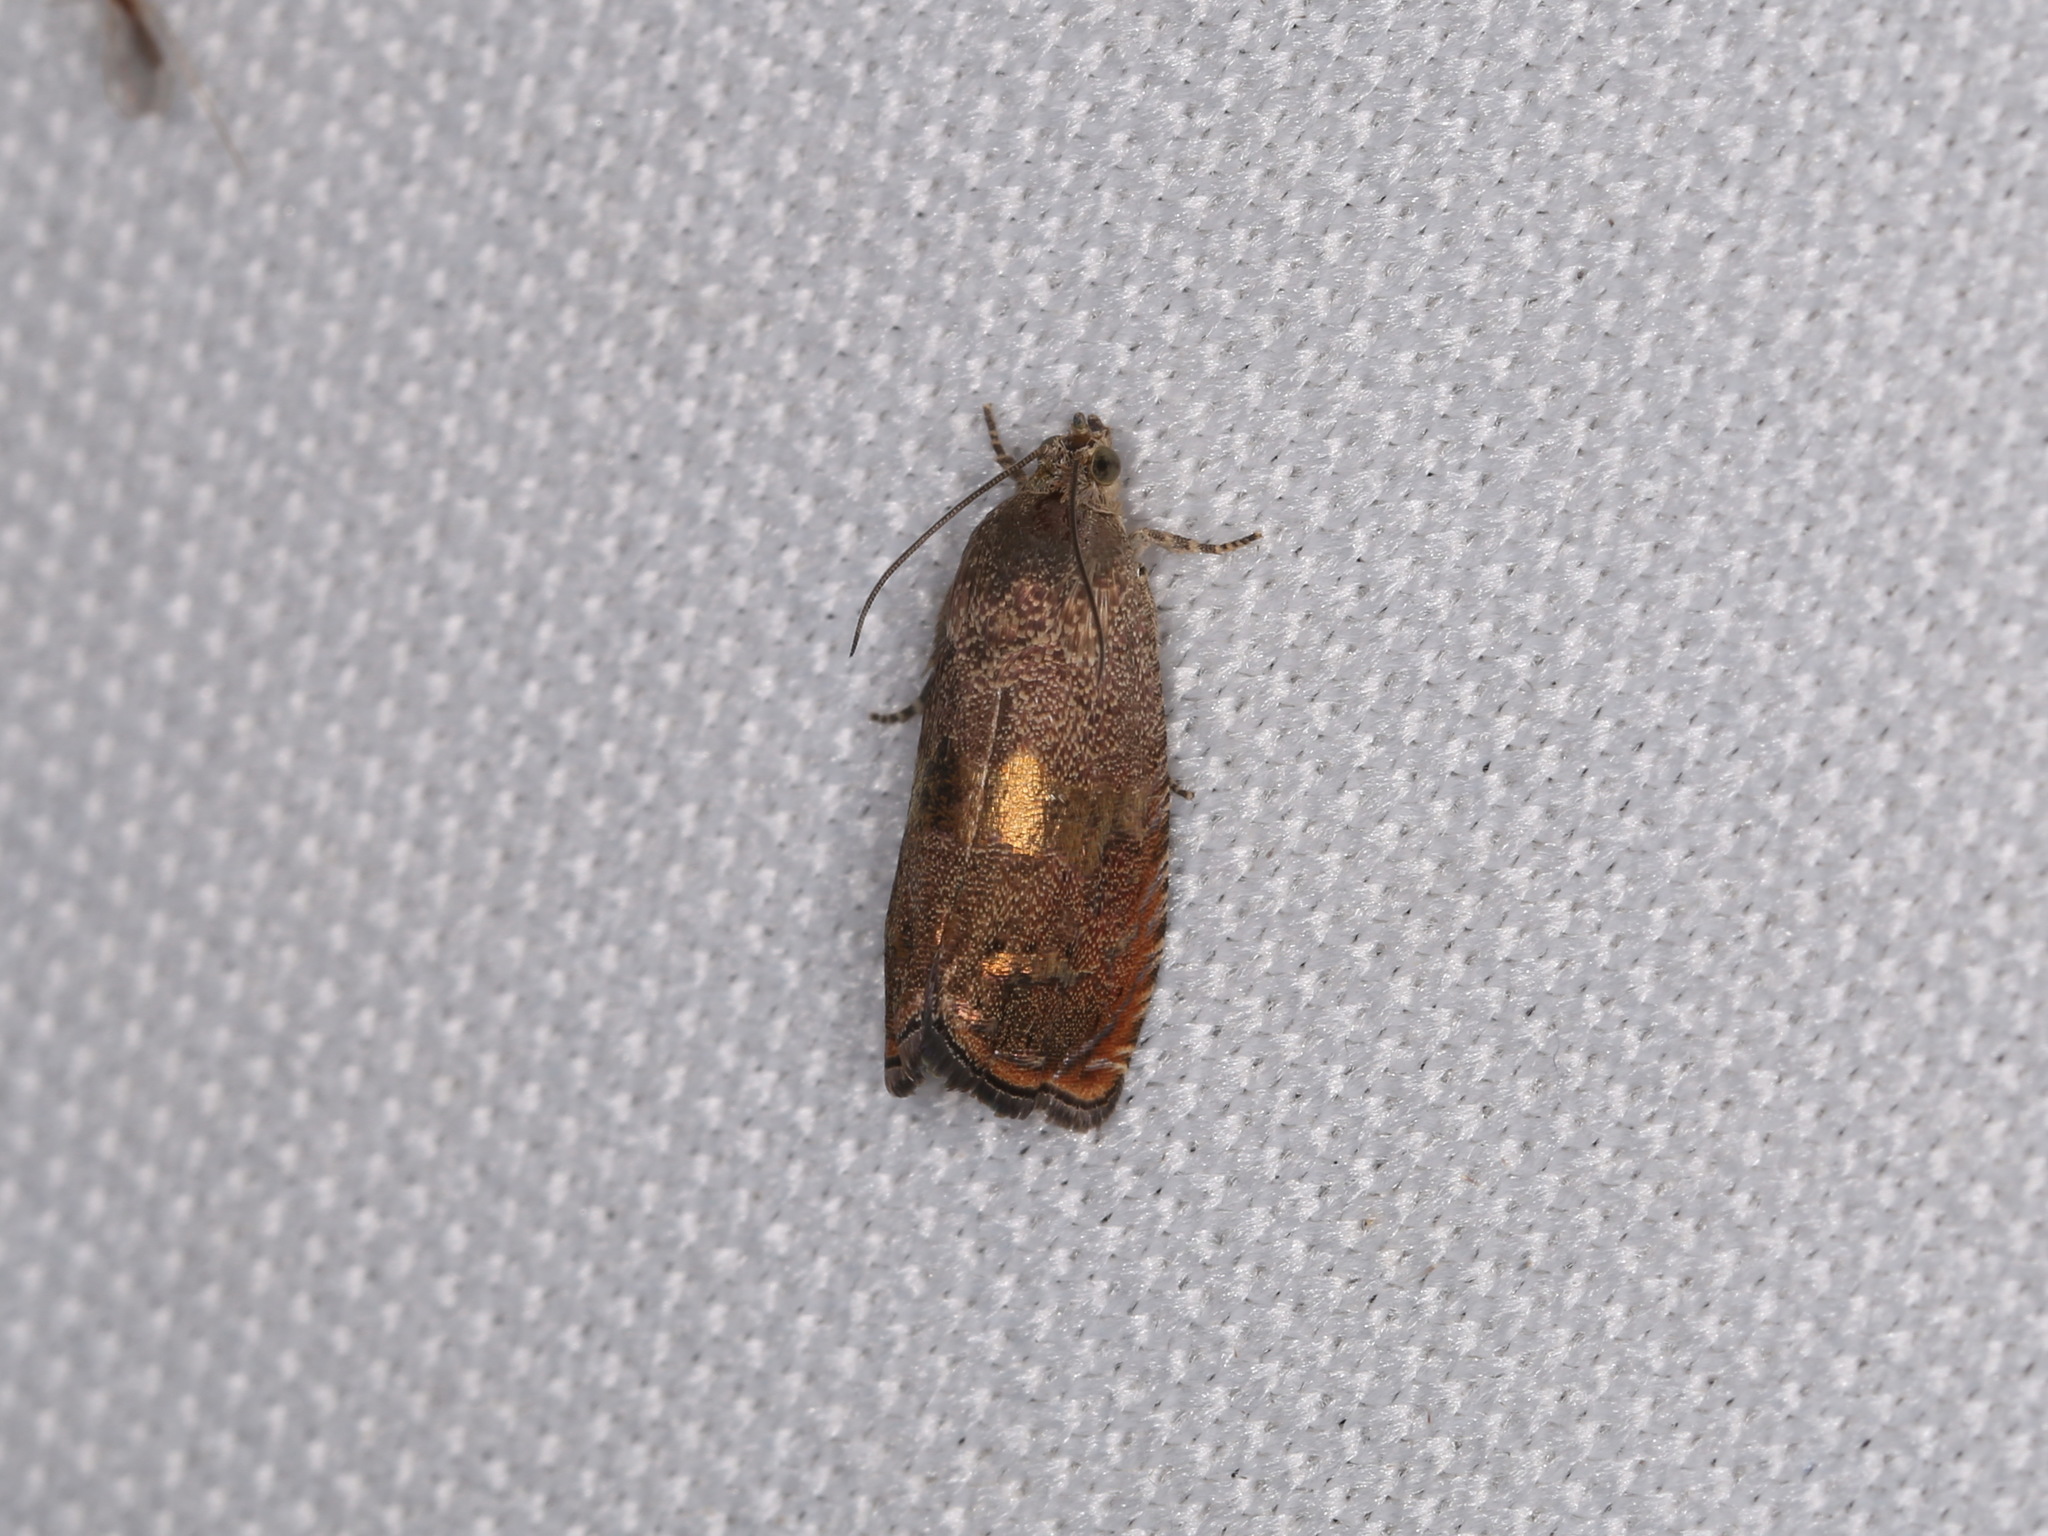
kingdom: Animalia
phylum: Arthropoda
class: Insecta
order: Lepidoptera
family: Tortricidae
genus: Cydia
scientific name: Cydia latiferreana
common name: Filbertworm moth
